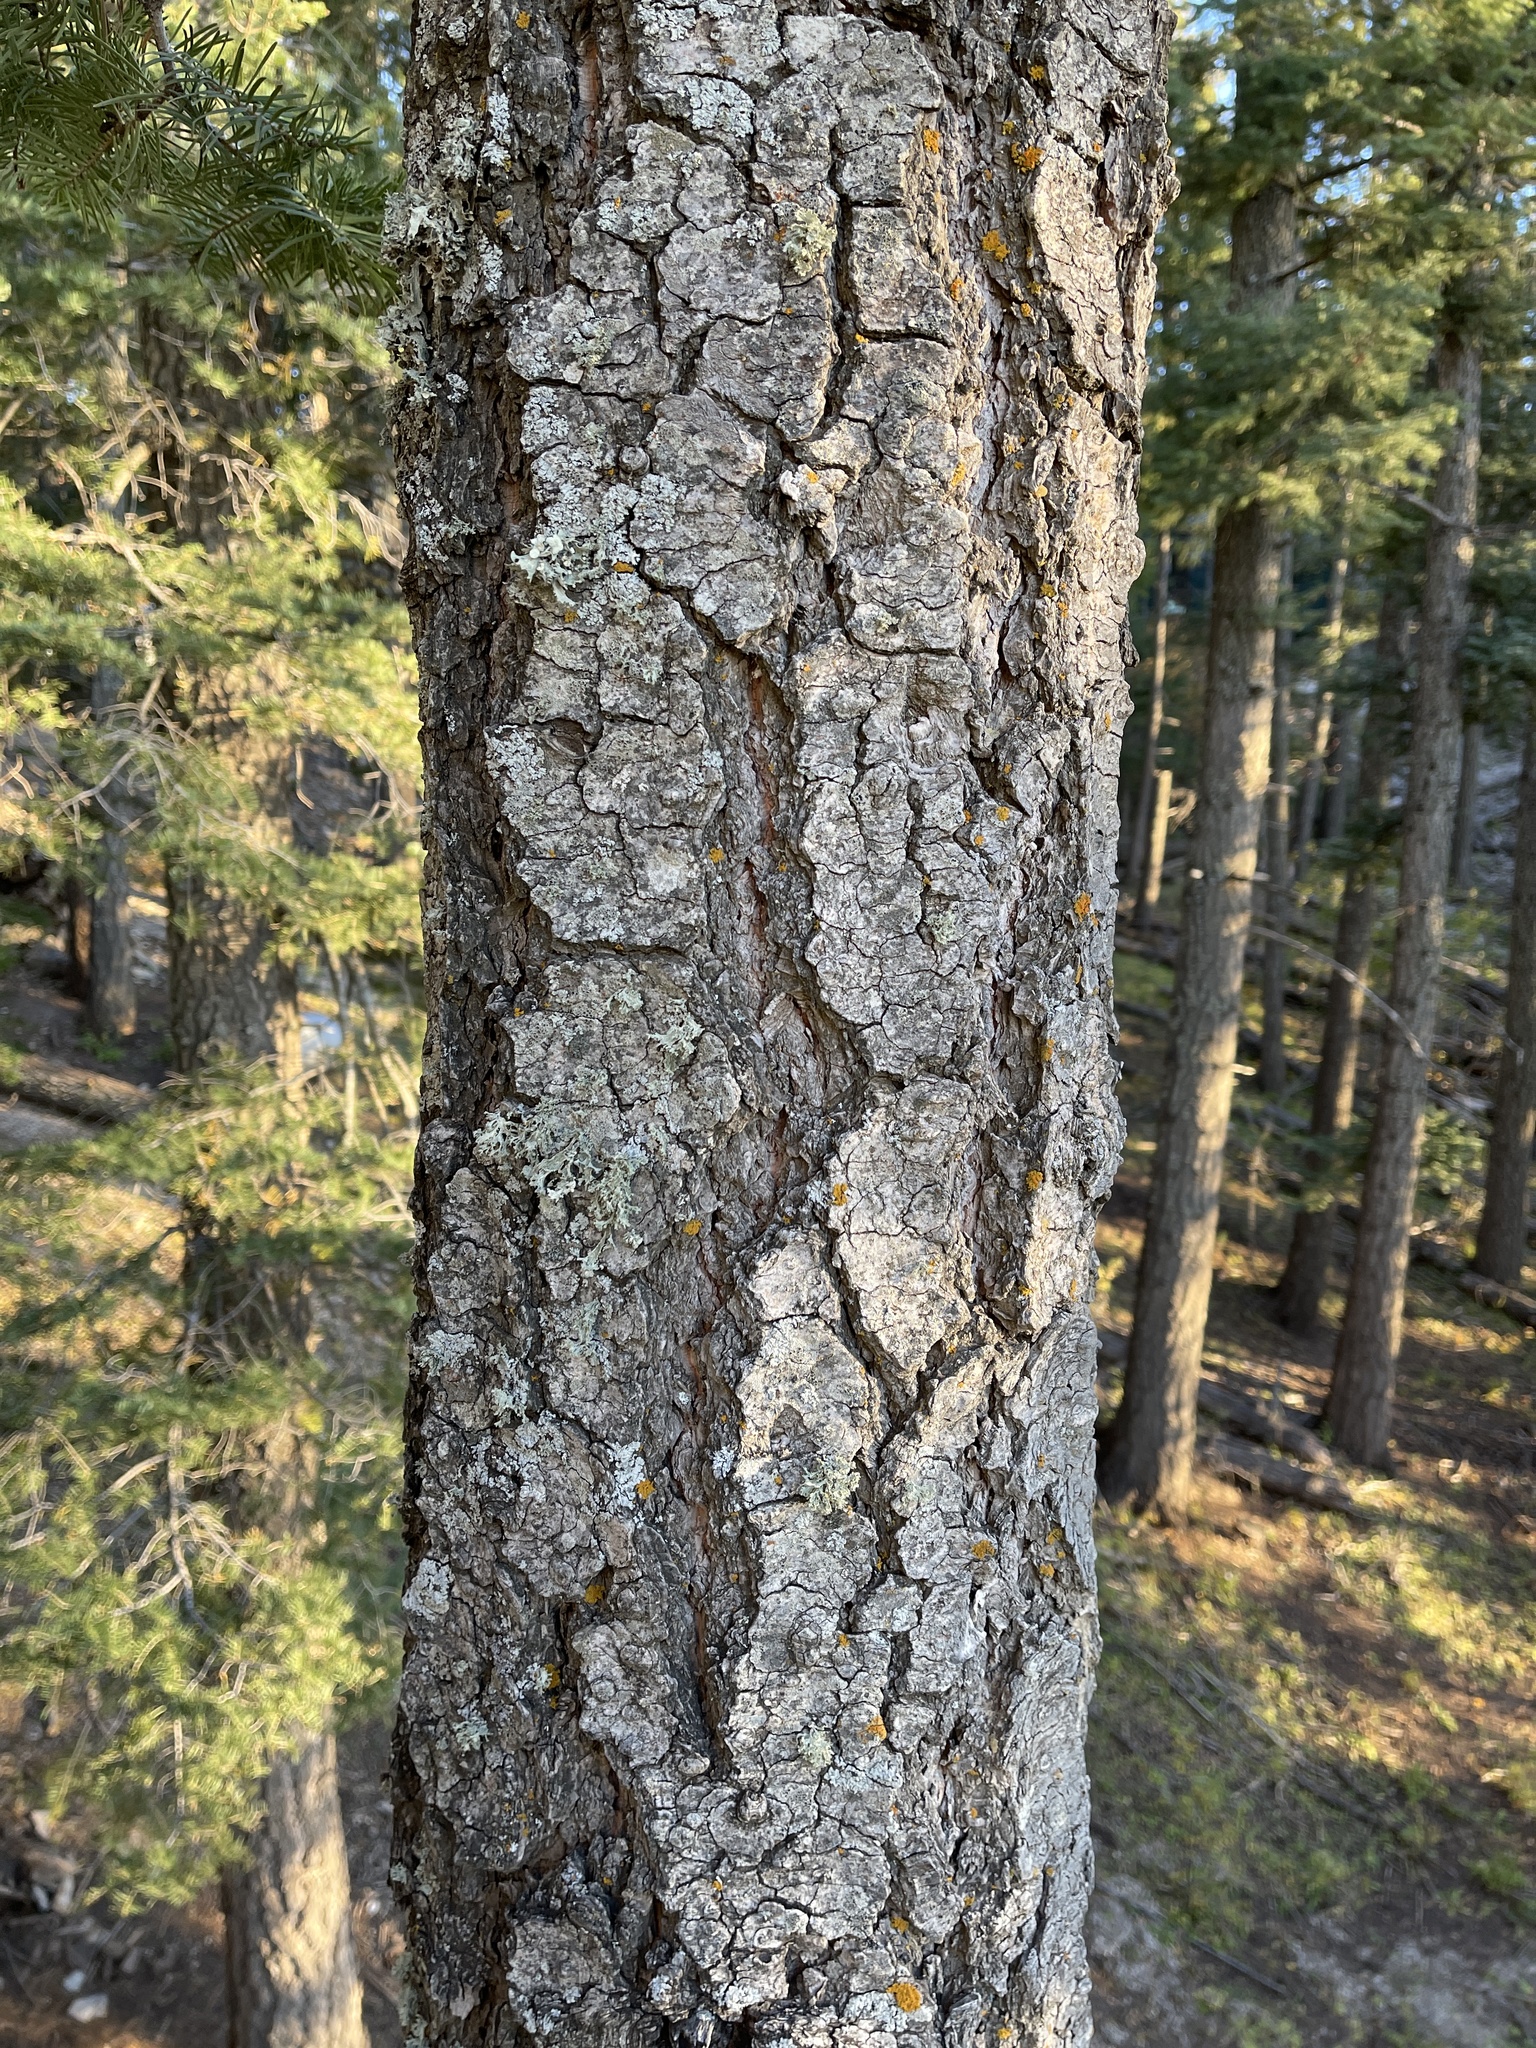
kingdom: Plantae
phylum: Tracheophyta
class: Pinopsida
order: Pinales
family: Pinaceae
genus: Abies
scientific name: Abies concolor
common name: Colorado fir
